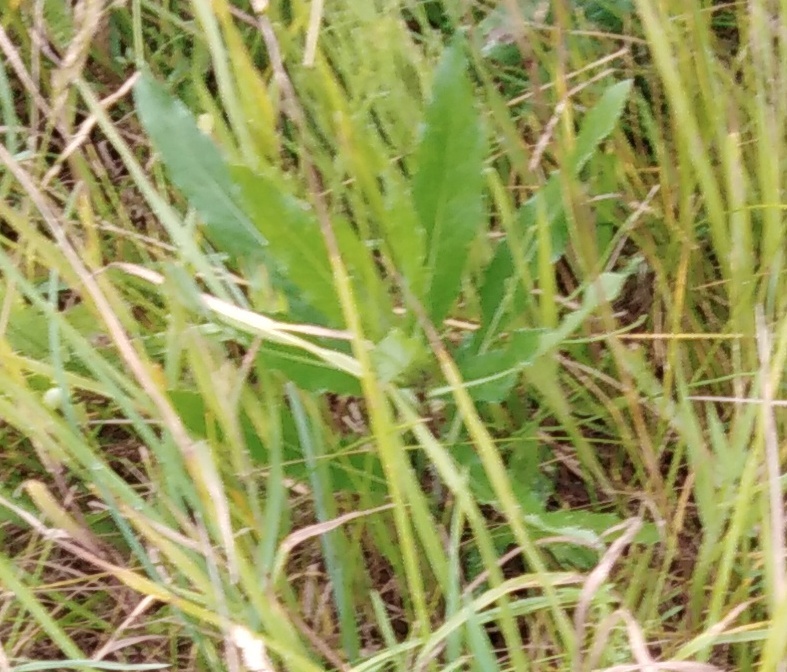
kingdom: Plantae
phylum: Tracheophyta
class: Magnoliopsida
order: Asterales
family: Asteraceae
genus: Cirsium
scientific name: Cirsium arvense
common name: Creeping thistle
